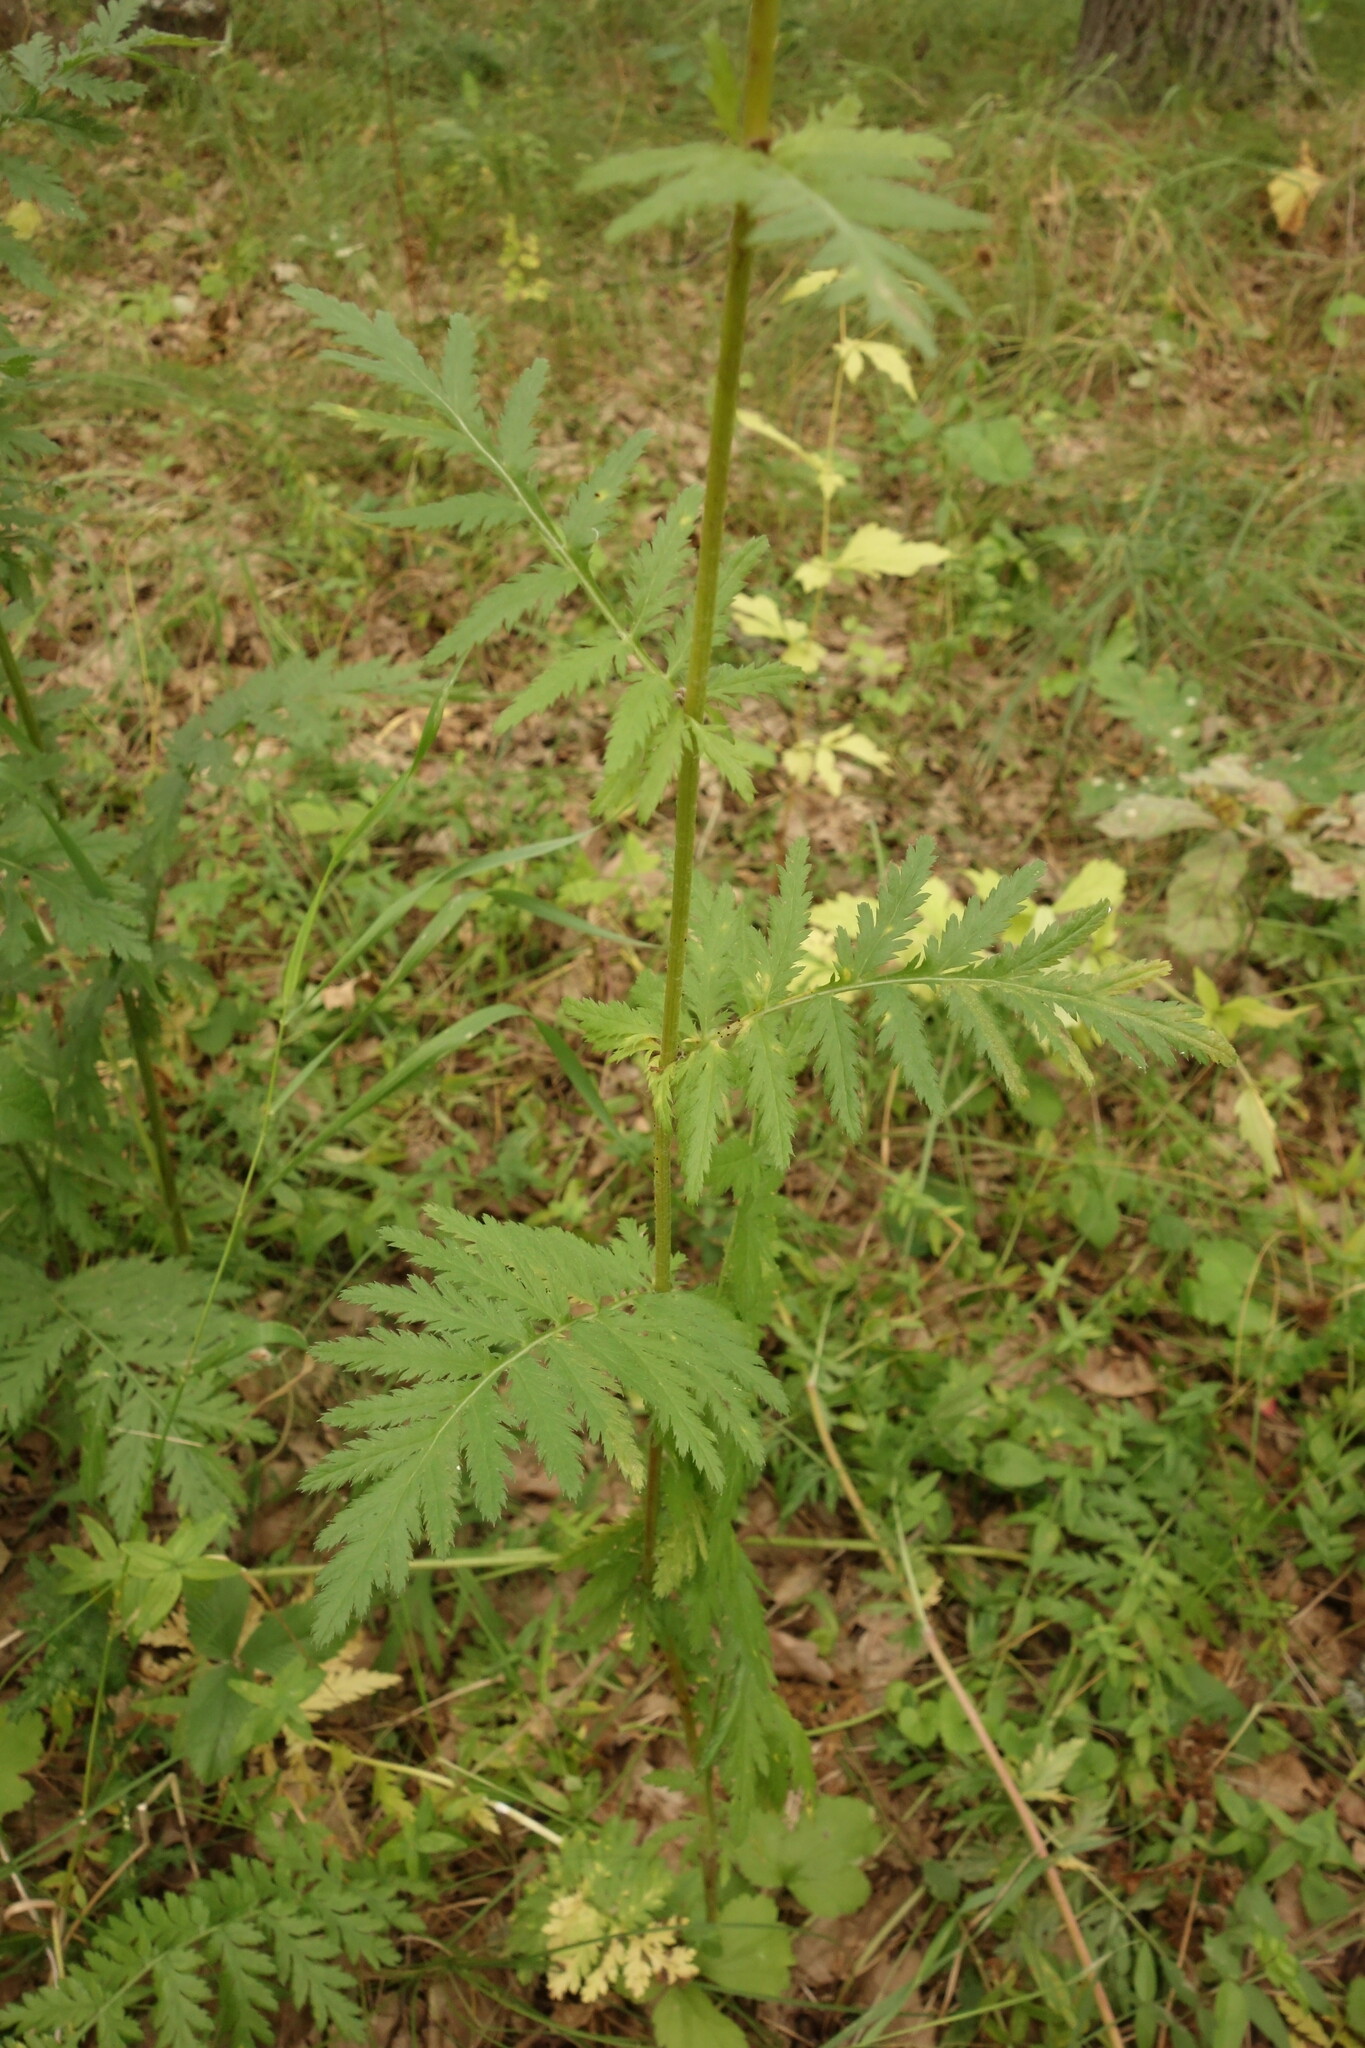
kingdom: Plantae
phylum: Tracheophyta
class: Magnoliopsida
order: Asterales
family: Asteraceae
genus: Tanacetum
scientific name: Tanacetum corymbosum
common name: Scentless feverfew
